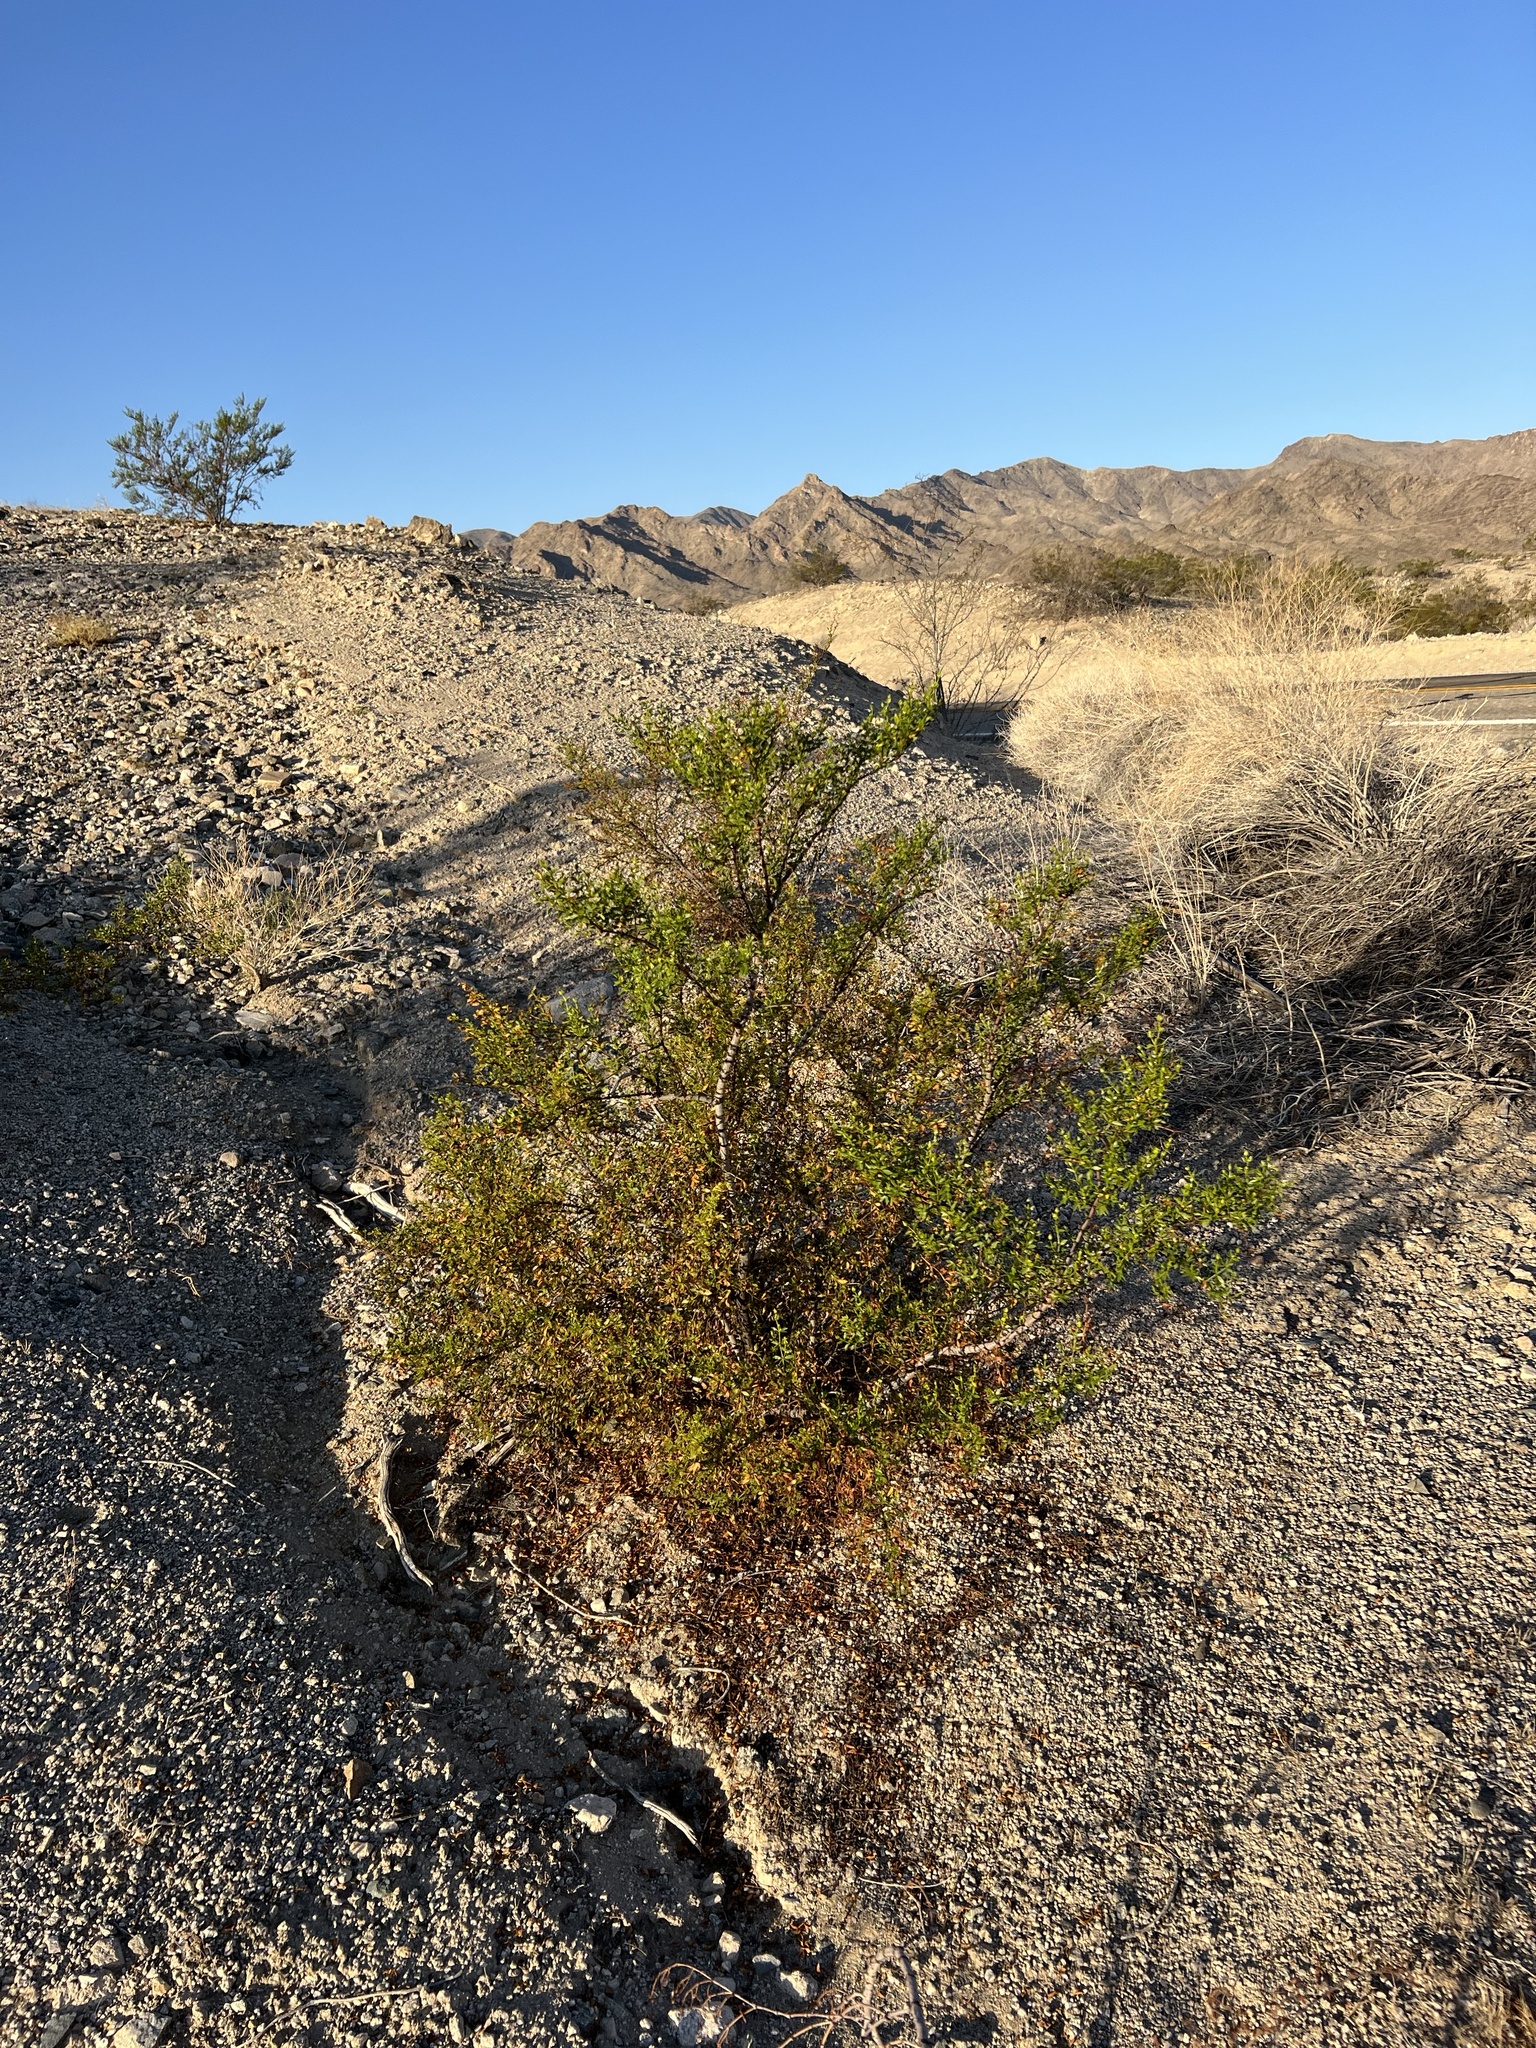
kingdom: Plantae
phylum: Tracheophyta
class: Magnoliopsida
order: Zygophyllales
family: Zygophyllaceae
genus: Larrea
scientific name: Larrea tridentata
